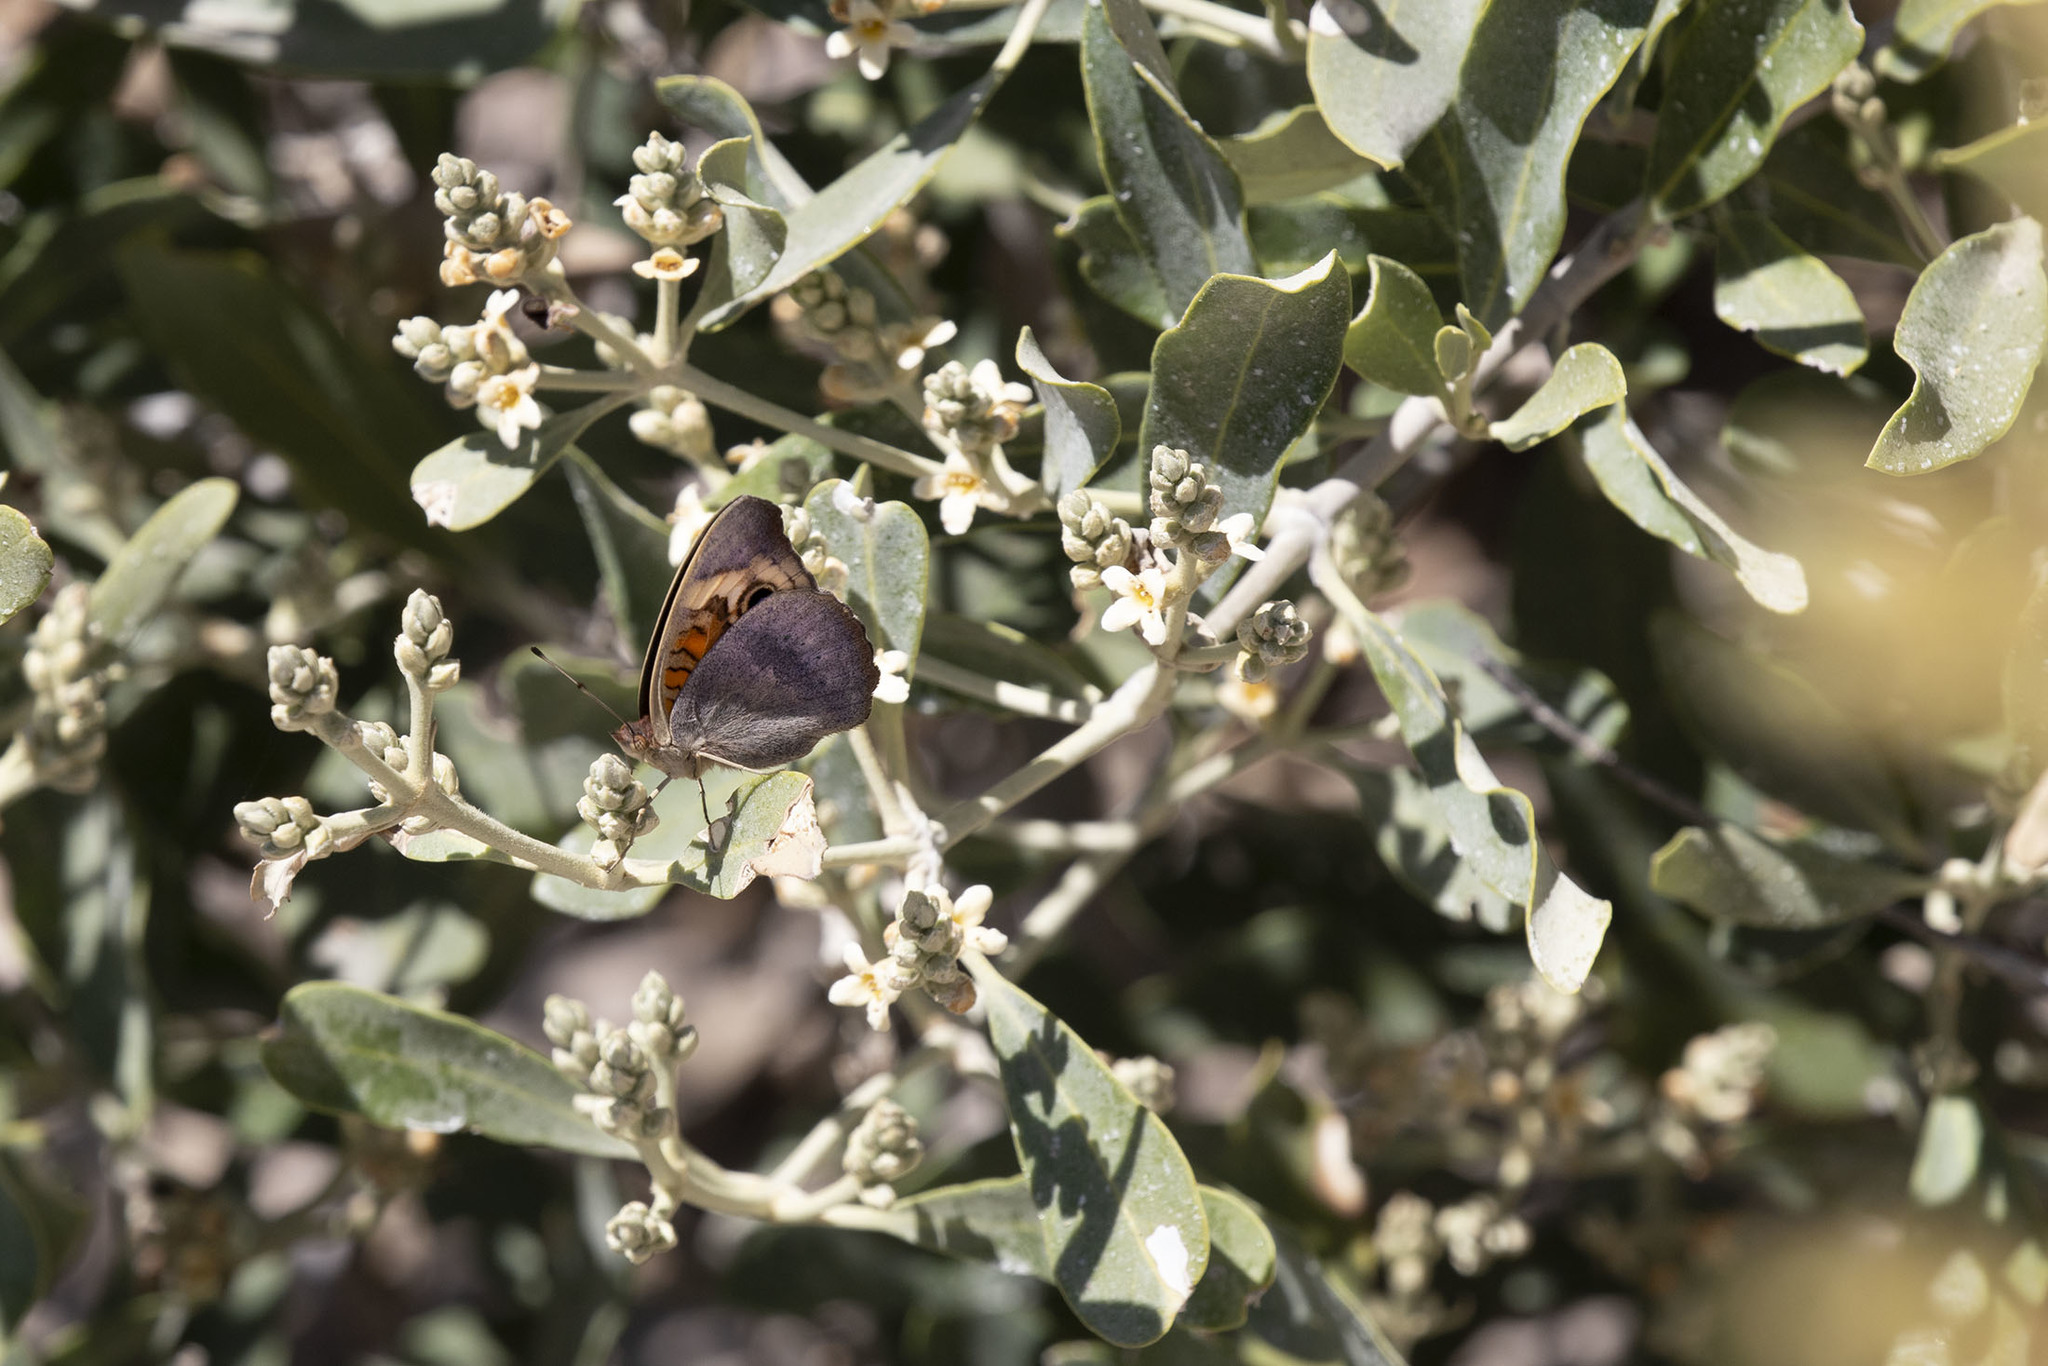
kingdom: Plantae
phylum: Tracheophyta
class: Magnoliopsida
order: Lamiales
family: Acanthaceae
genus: Avicennia
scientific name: Avicennia germinans
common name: Black mangrove
